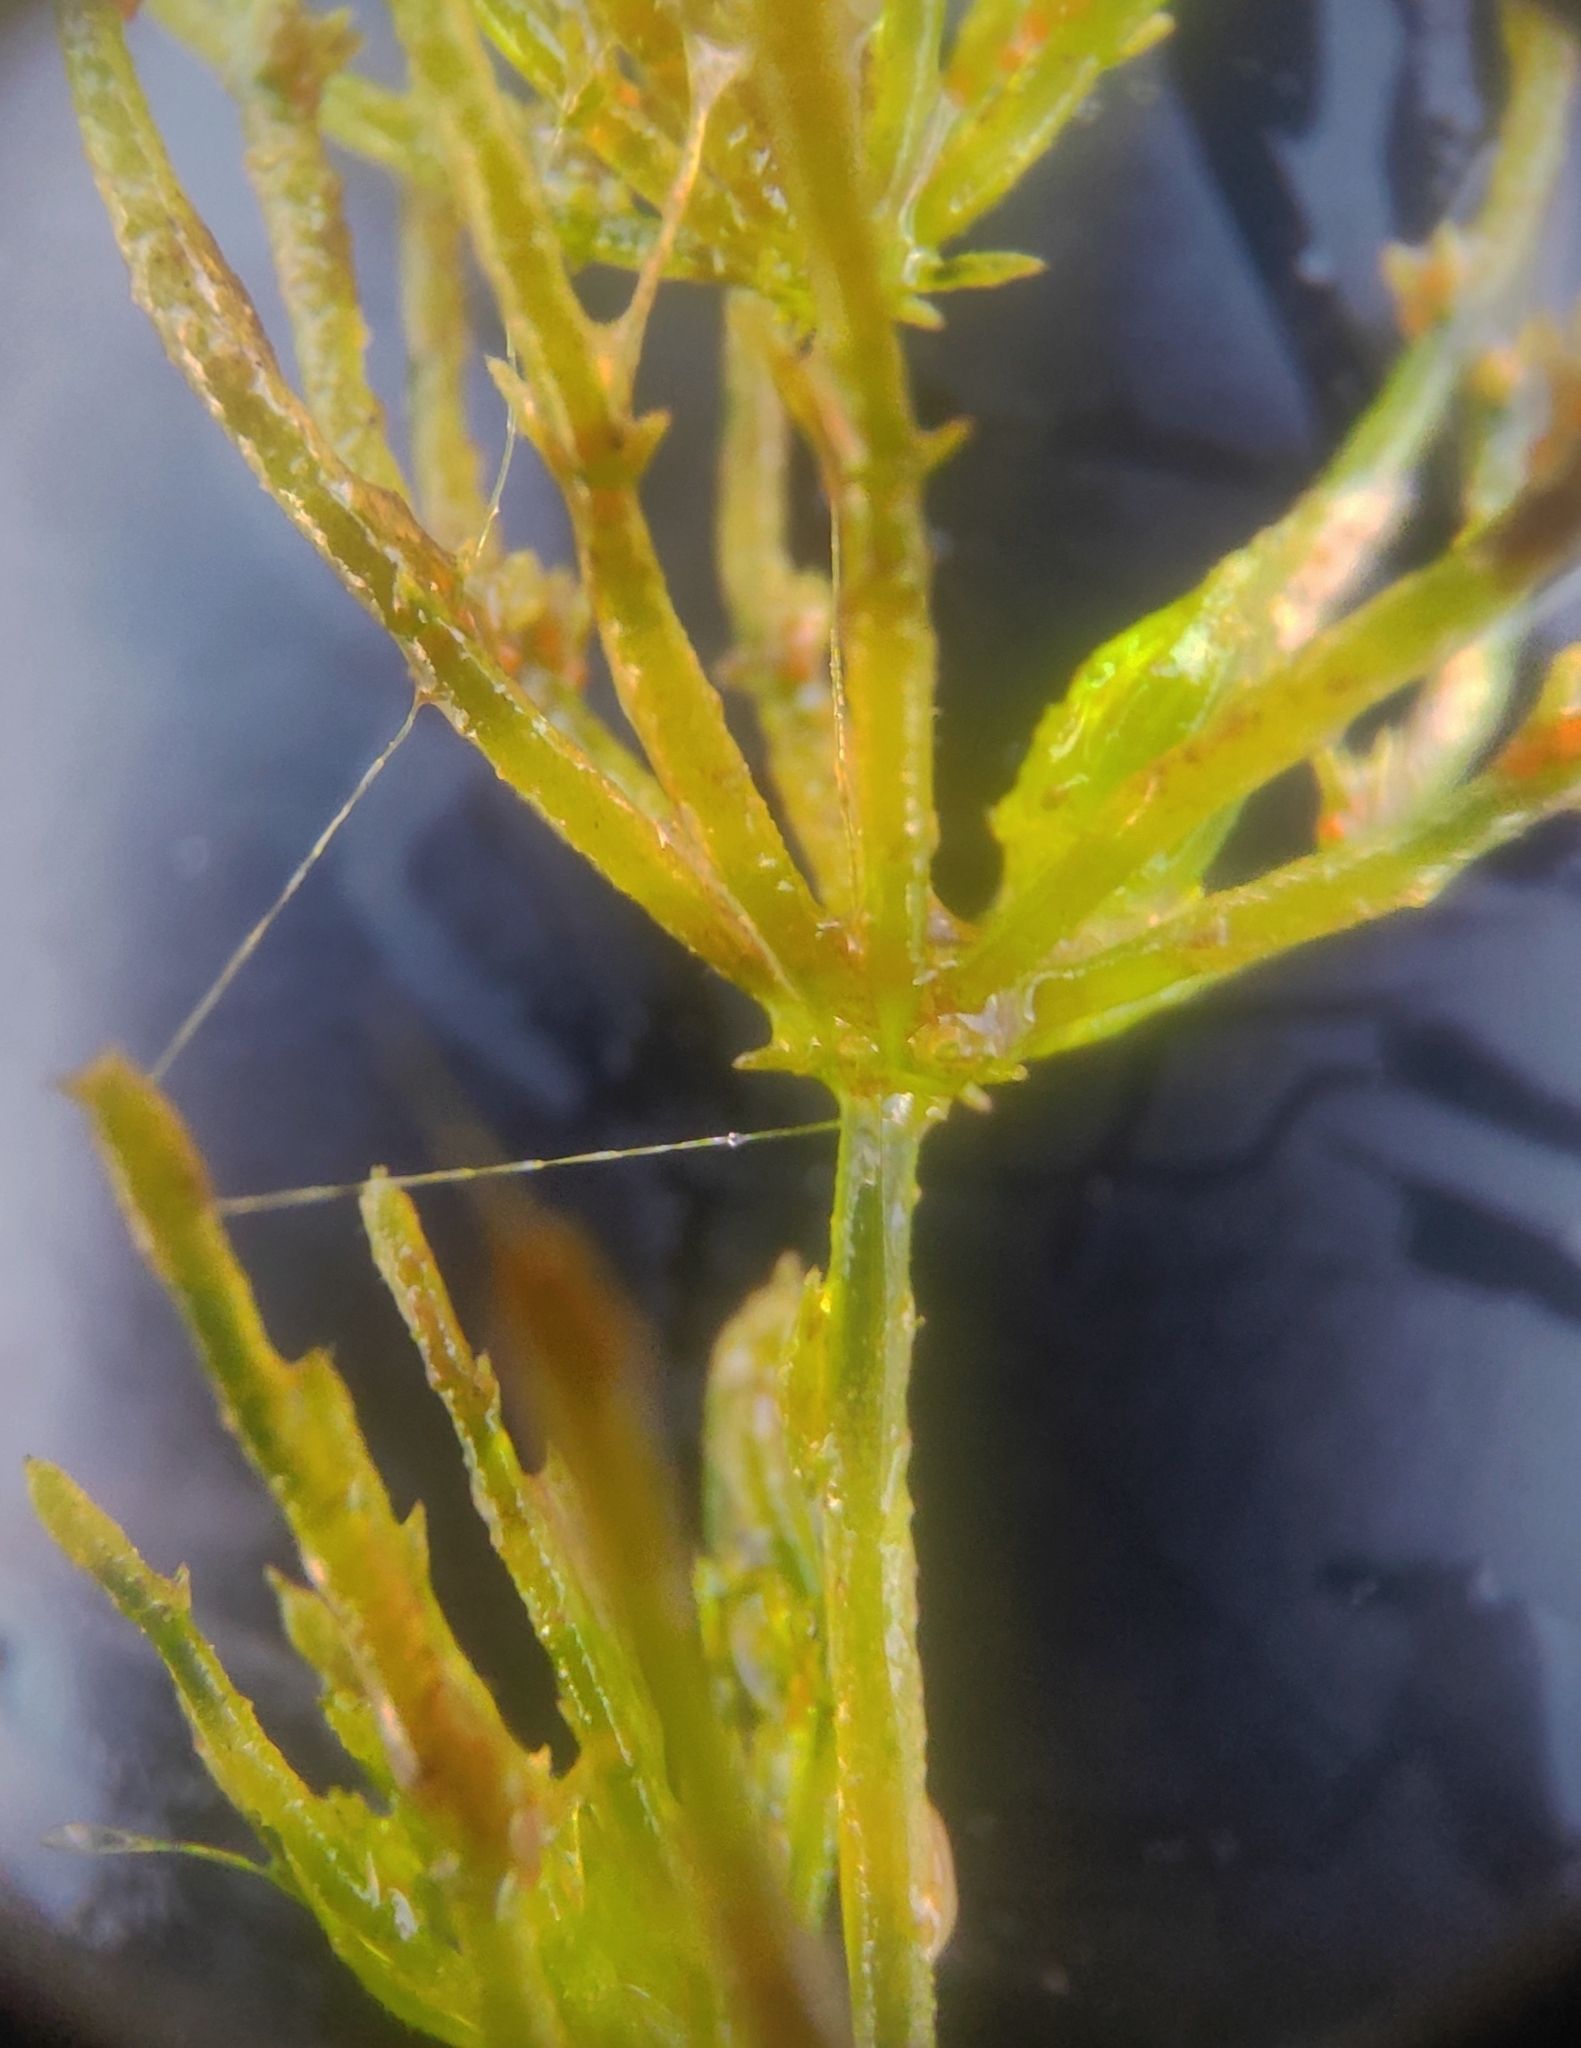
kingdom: Plantae
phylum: Charophyta
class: Charophyceae
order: Charales
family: Characeae
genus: Chara
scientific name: Chara braunii
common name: Braun's stonewort
